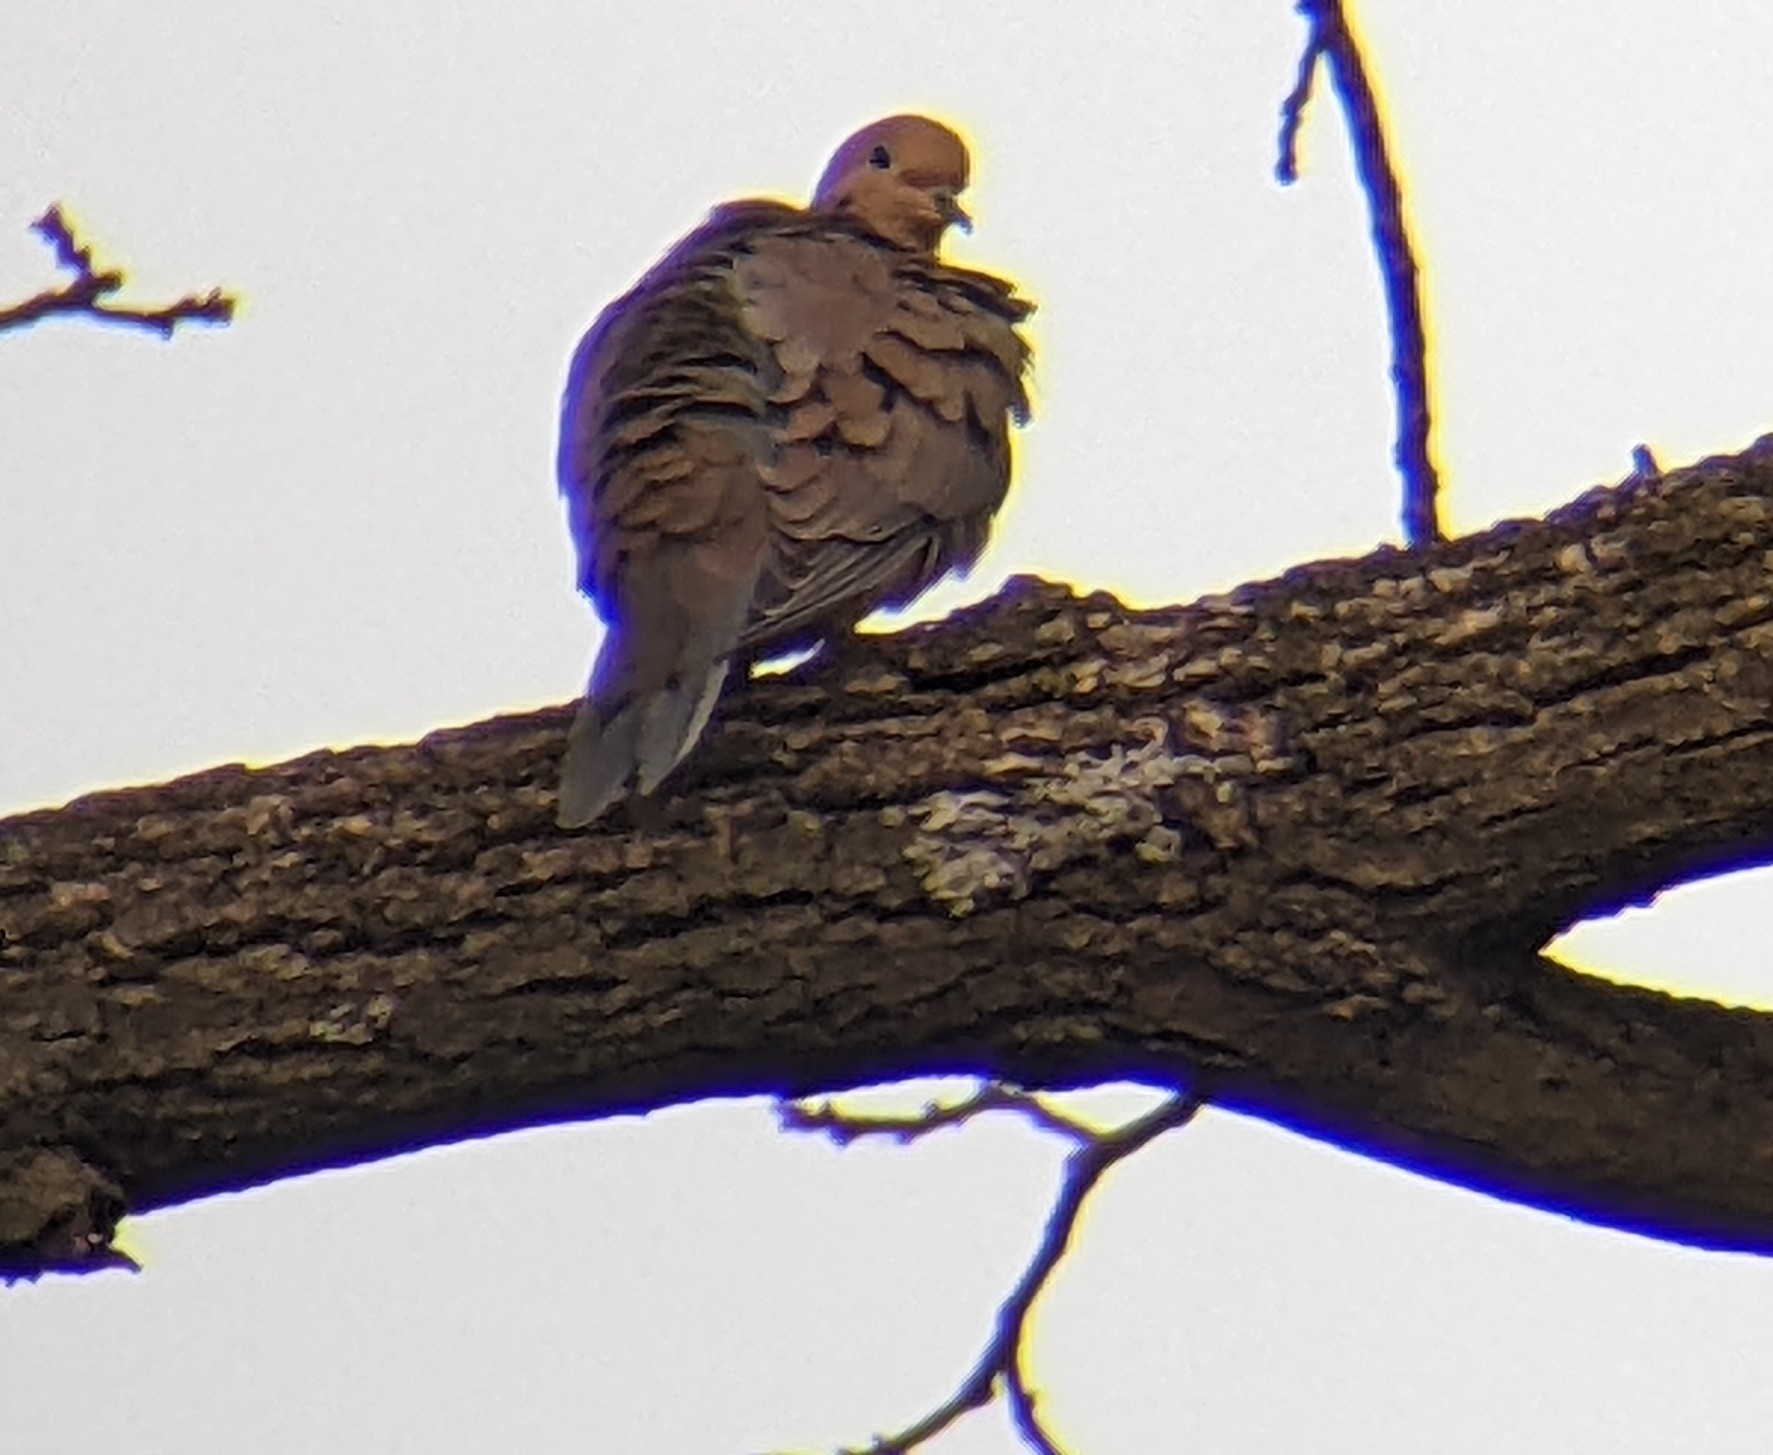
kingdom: Animalia
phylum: Chordata
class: Aves
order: Columbiformes
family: Columbidae
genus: Zenaida
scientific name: Zenaida macroura
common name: Mourning dove
